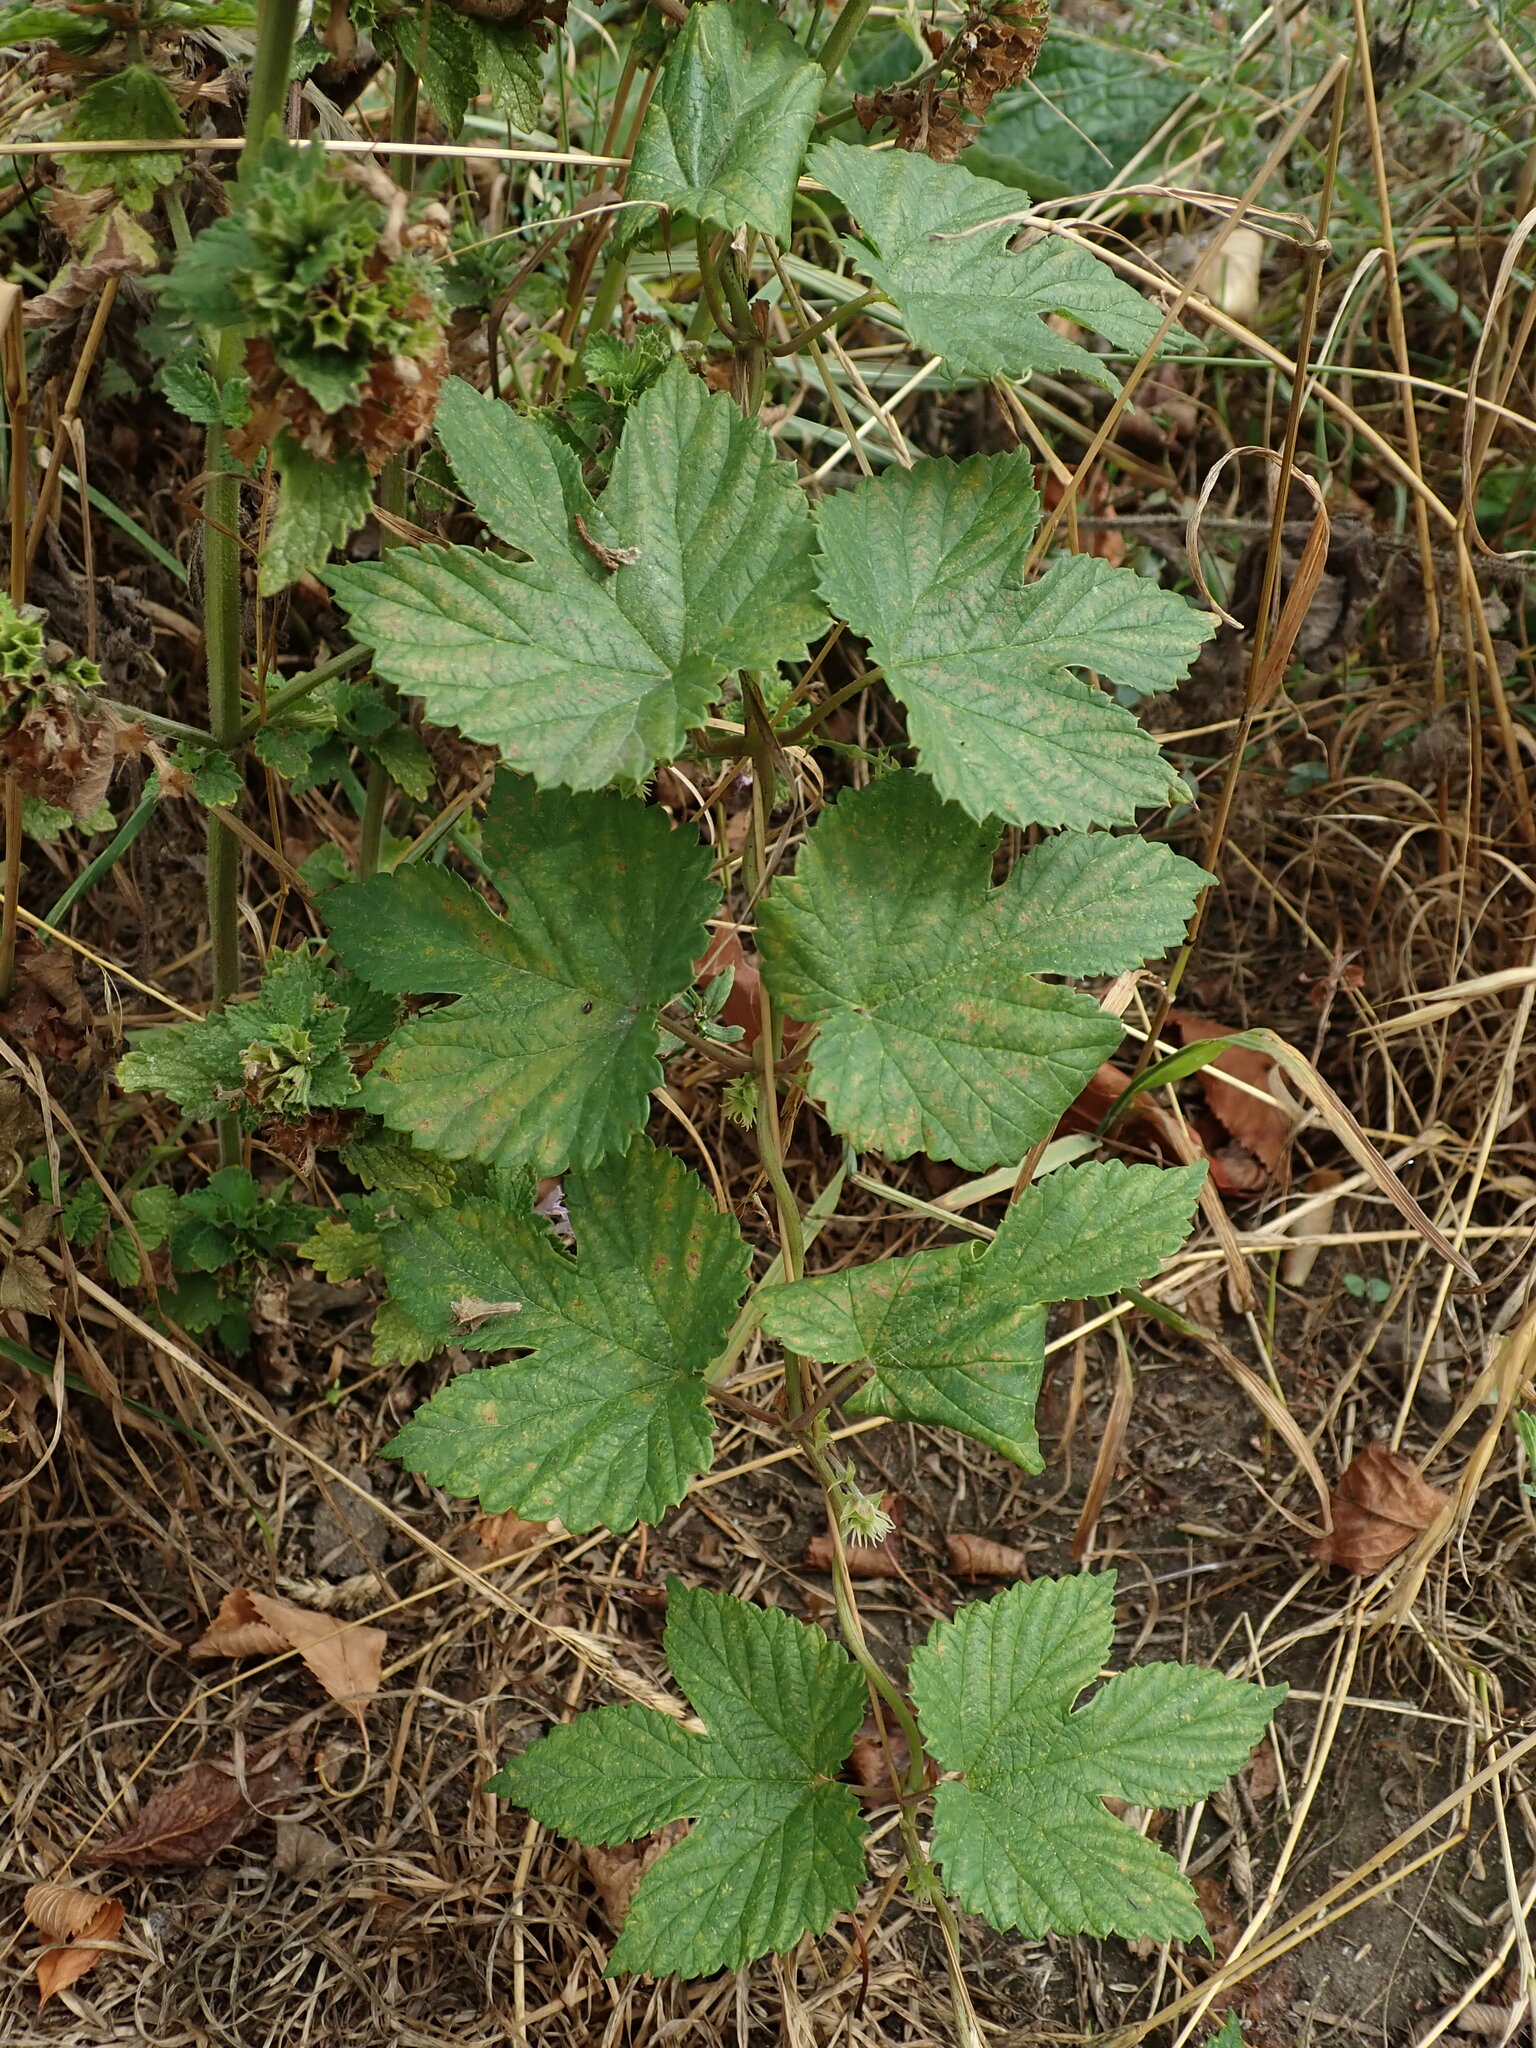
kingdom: Plantae
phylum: Tracheophyta
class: Magnoliopsida
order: Rosales
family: Cannabaceae
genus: Humulus
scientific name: Humulus lupulus
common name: Hop
